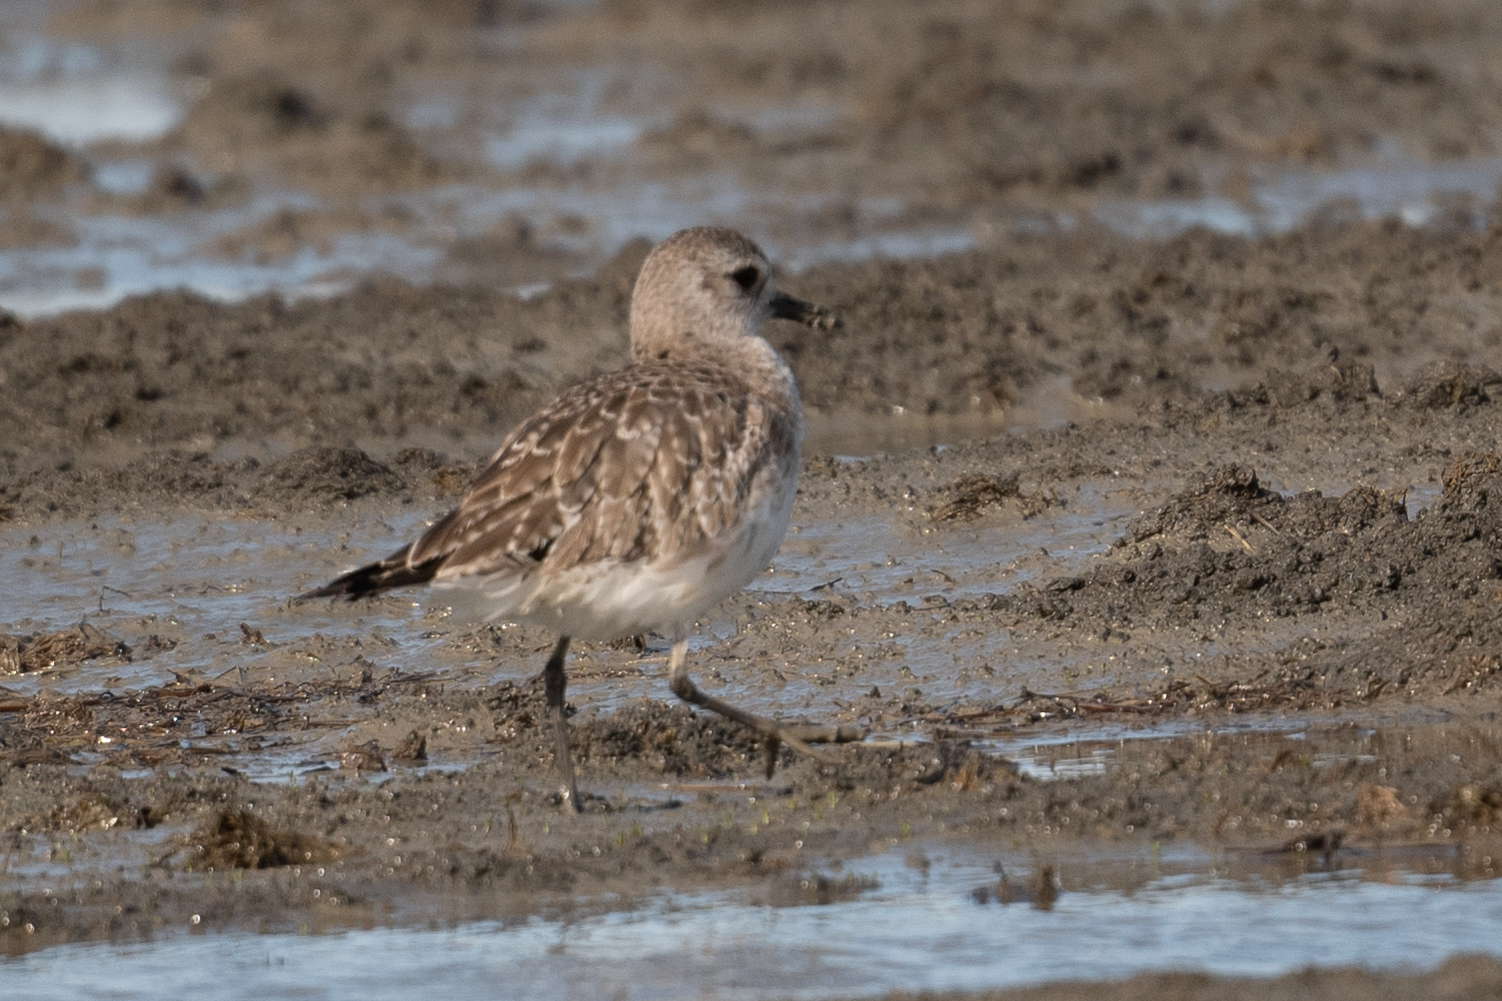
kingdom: Animalia
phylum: Chordata
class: Aves
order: Charadriiformes
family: Charadriidae
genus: Pluvialis
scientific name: Pluvialis squatarola
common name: Grey plover
